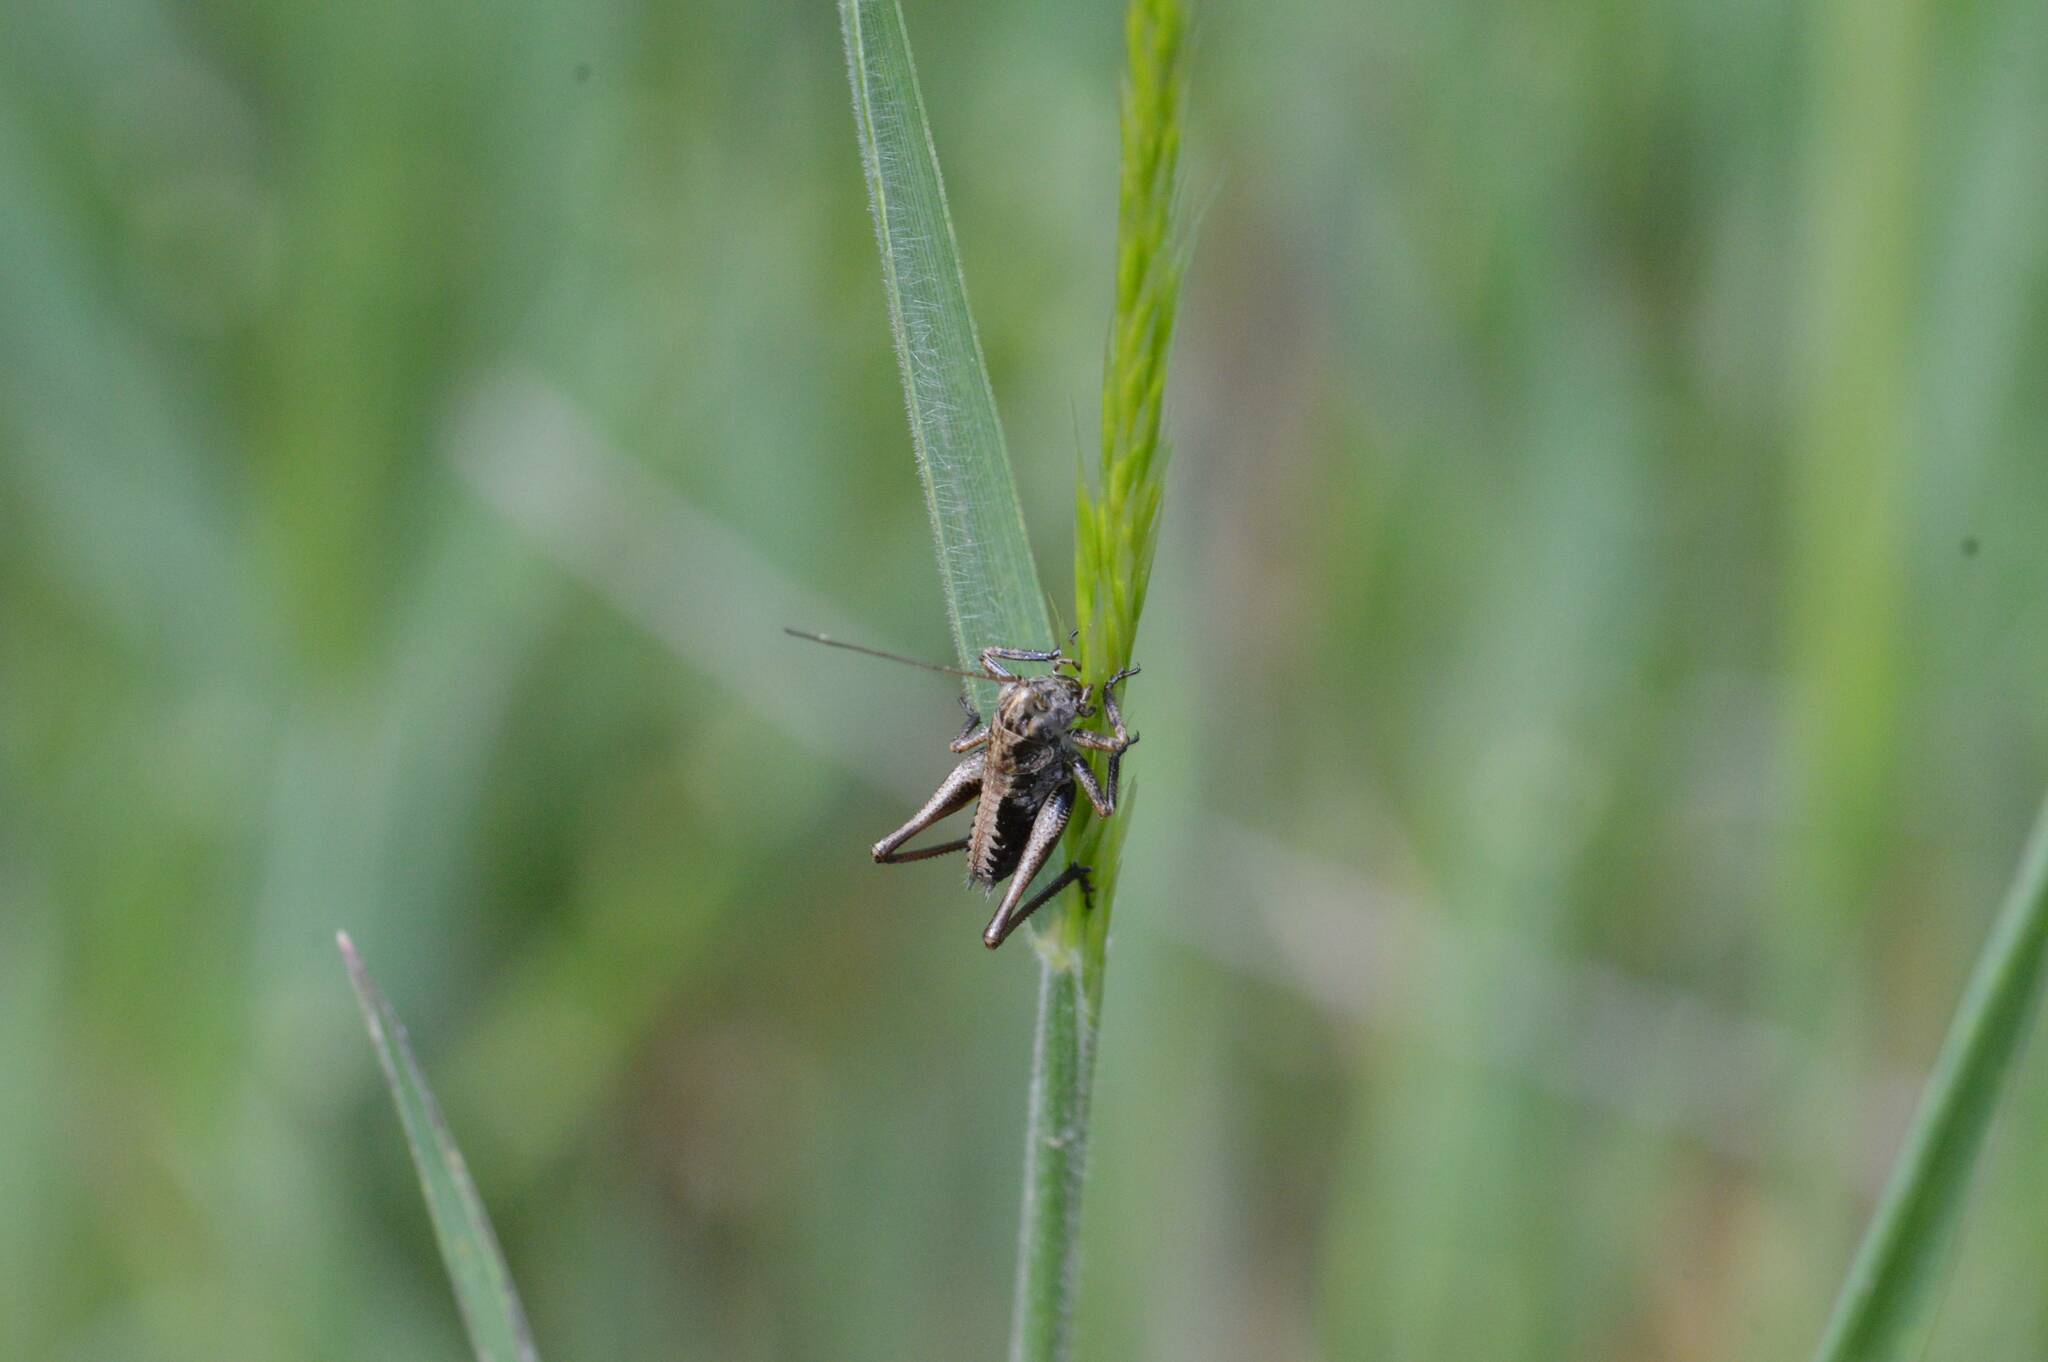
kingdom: Animalia
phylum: Arthropoda
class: Insecta
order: Orthoptera
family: Tettigoniidae
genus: Decticus
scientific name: Decticus albifrons
